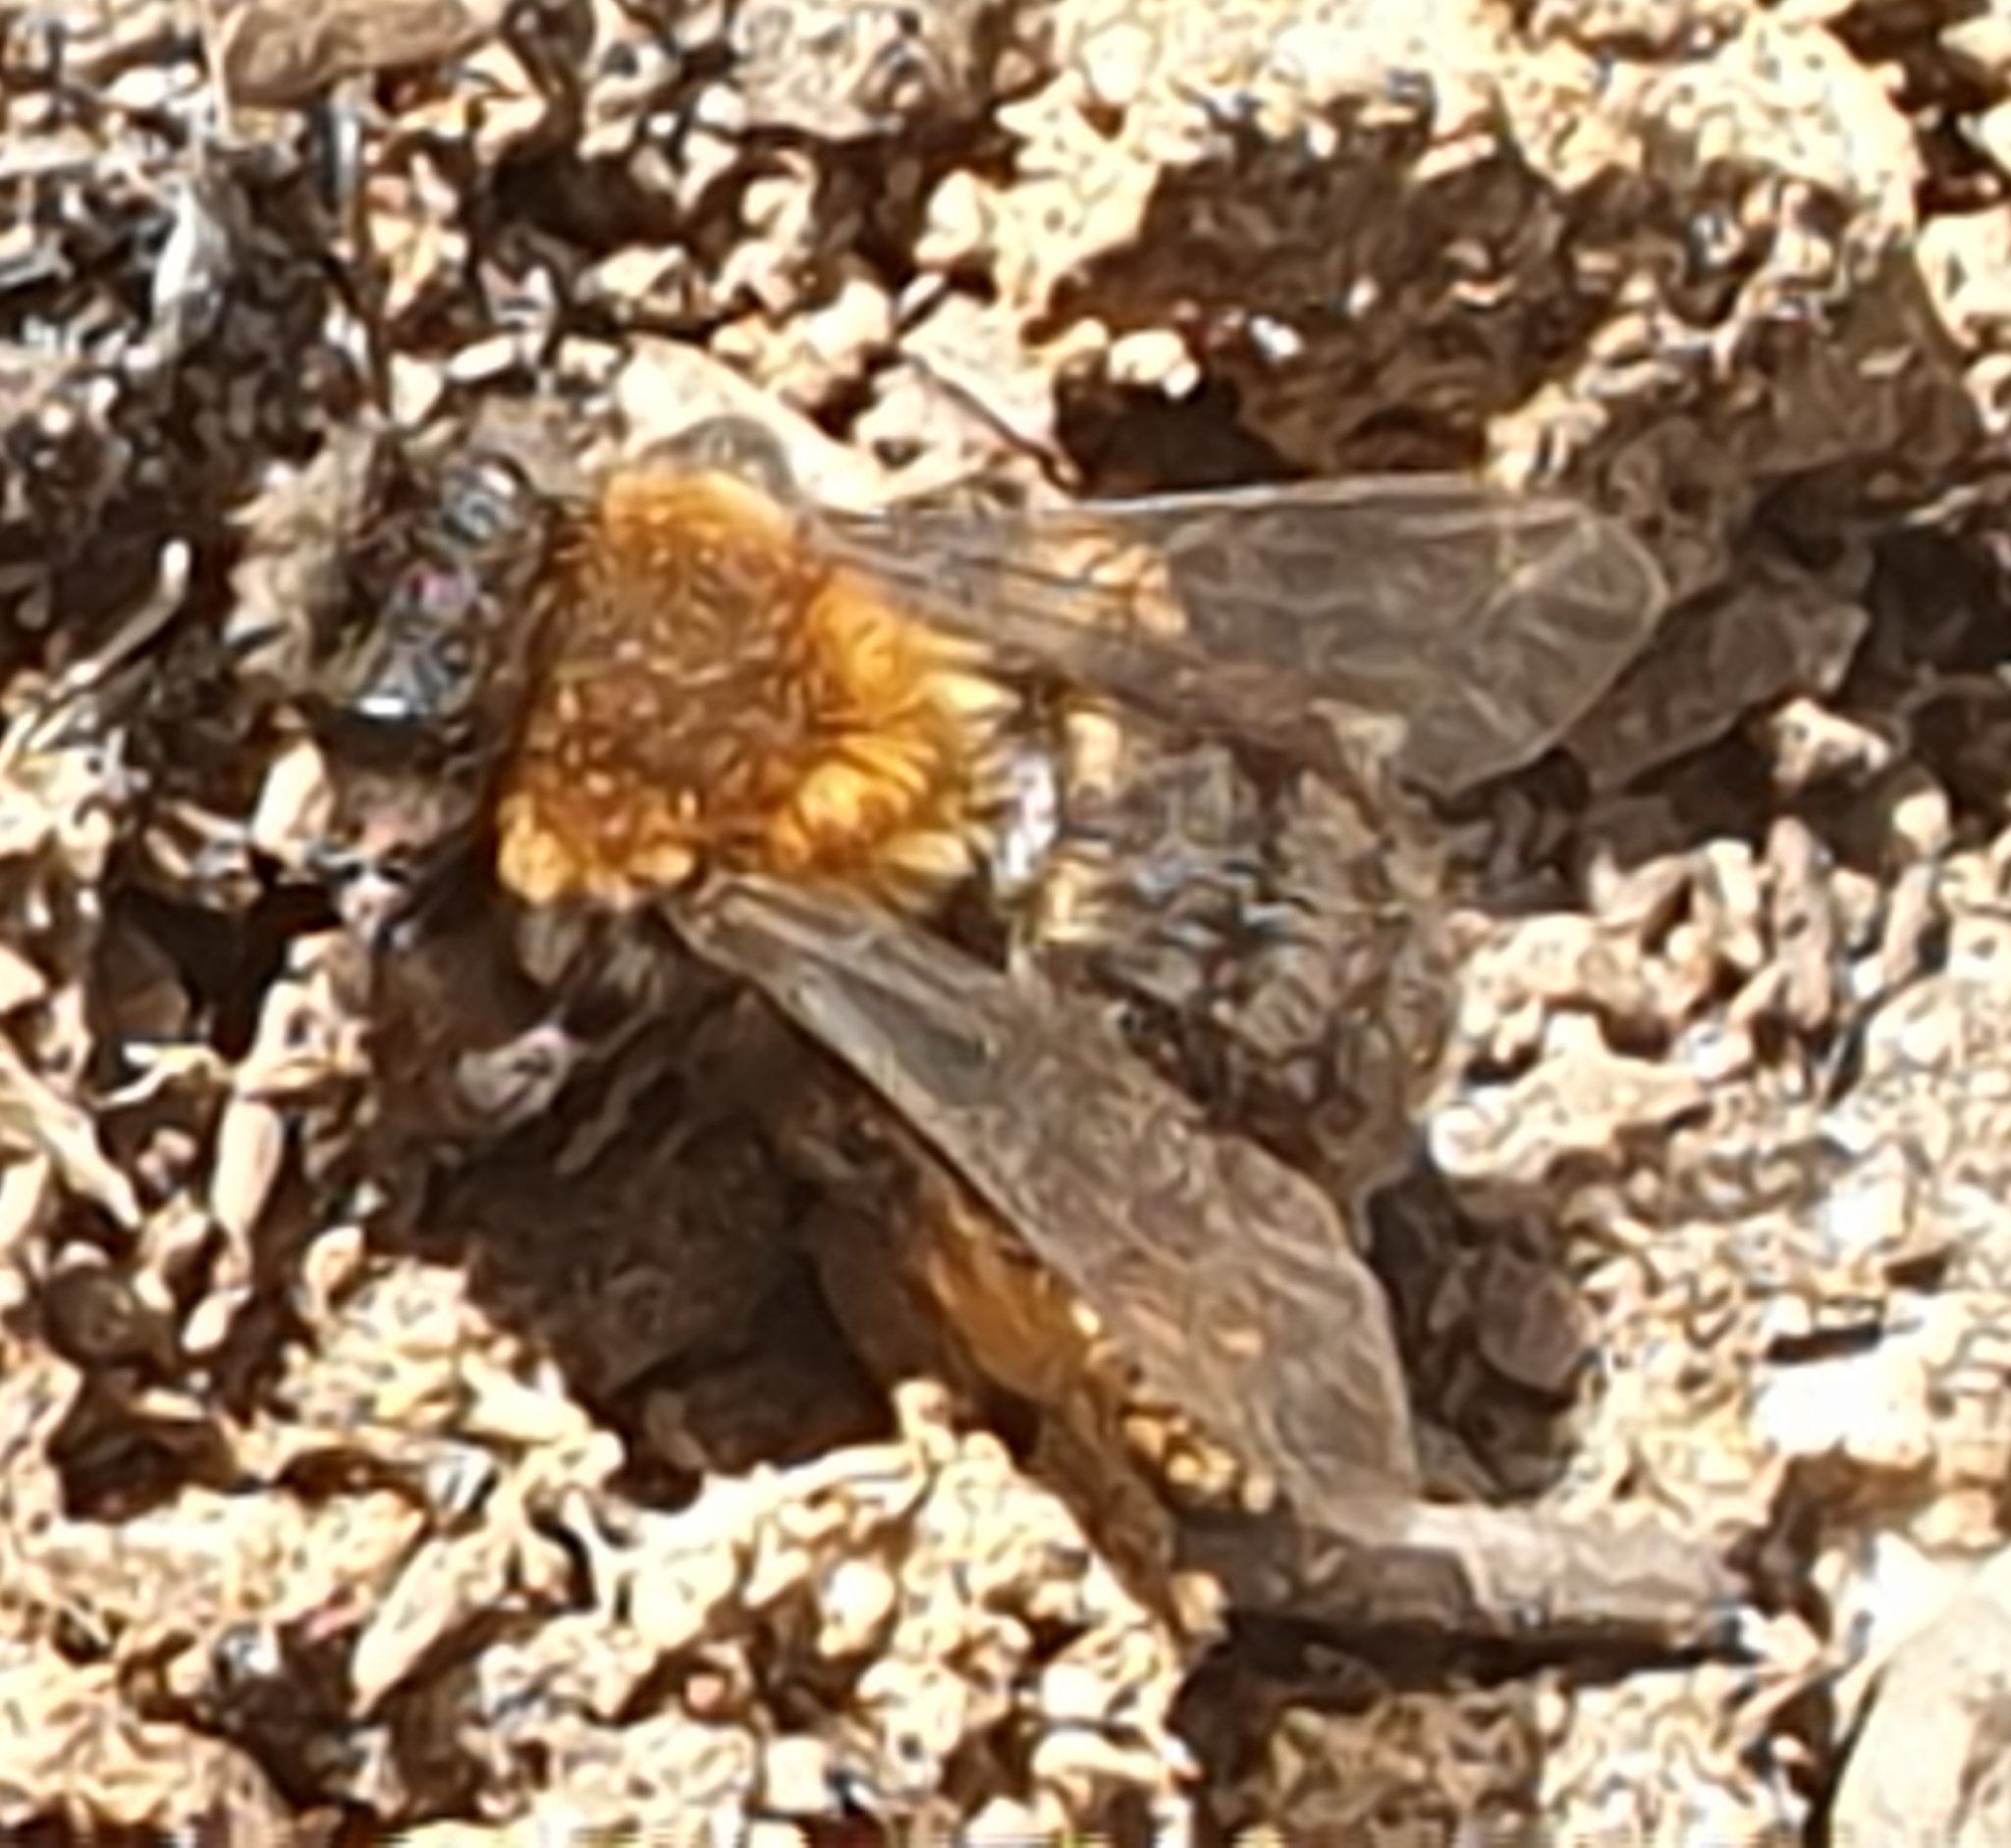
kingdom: Animalia
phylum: Arthropoda
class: Insecta
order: Hymenoptera
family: Andrenidae
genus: Andrena
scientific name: Andrena clarkella
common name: Clarke's mining bee
